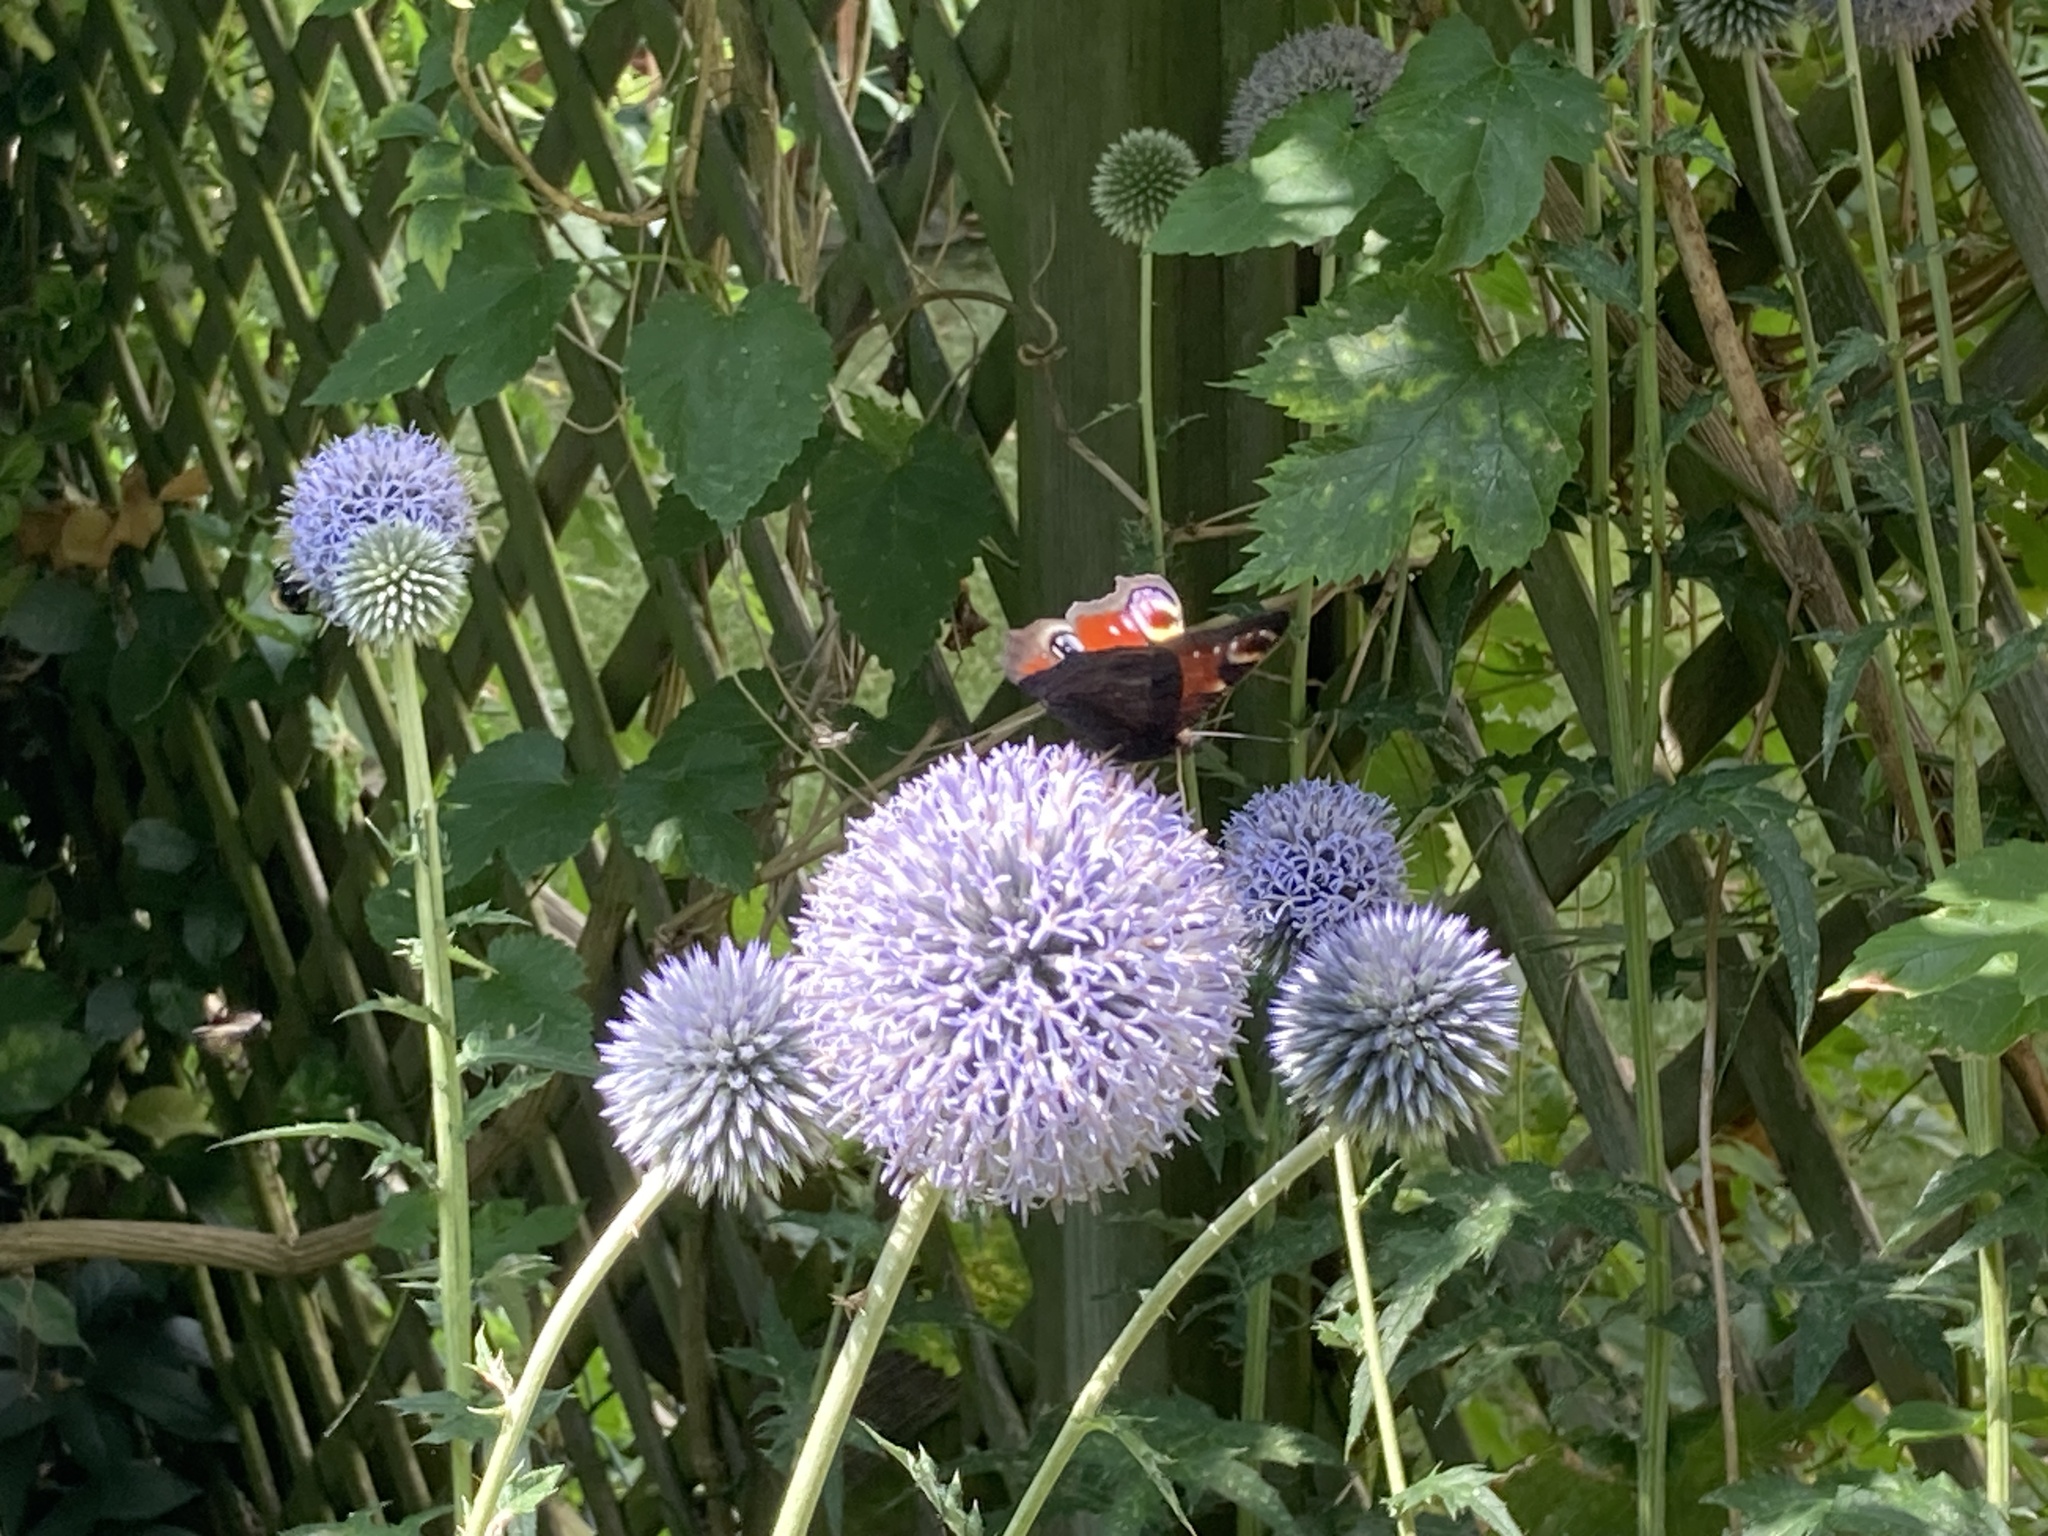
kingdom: Animalia
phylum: Arthropoda
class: Insecta
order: Lepidoptera
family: Nymphalidae
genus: Aglais
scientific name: Aglais io
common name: Peacock
